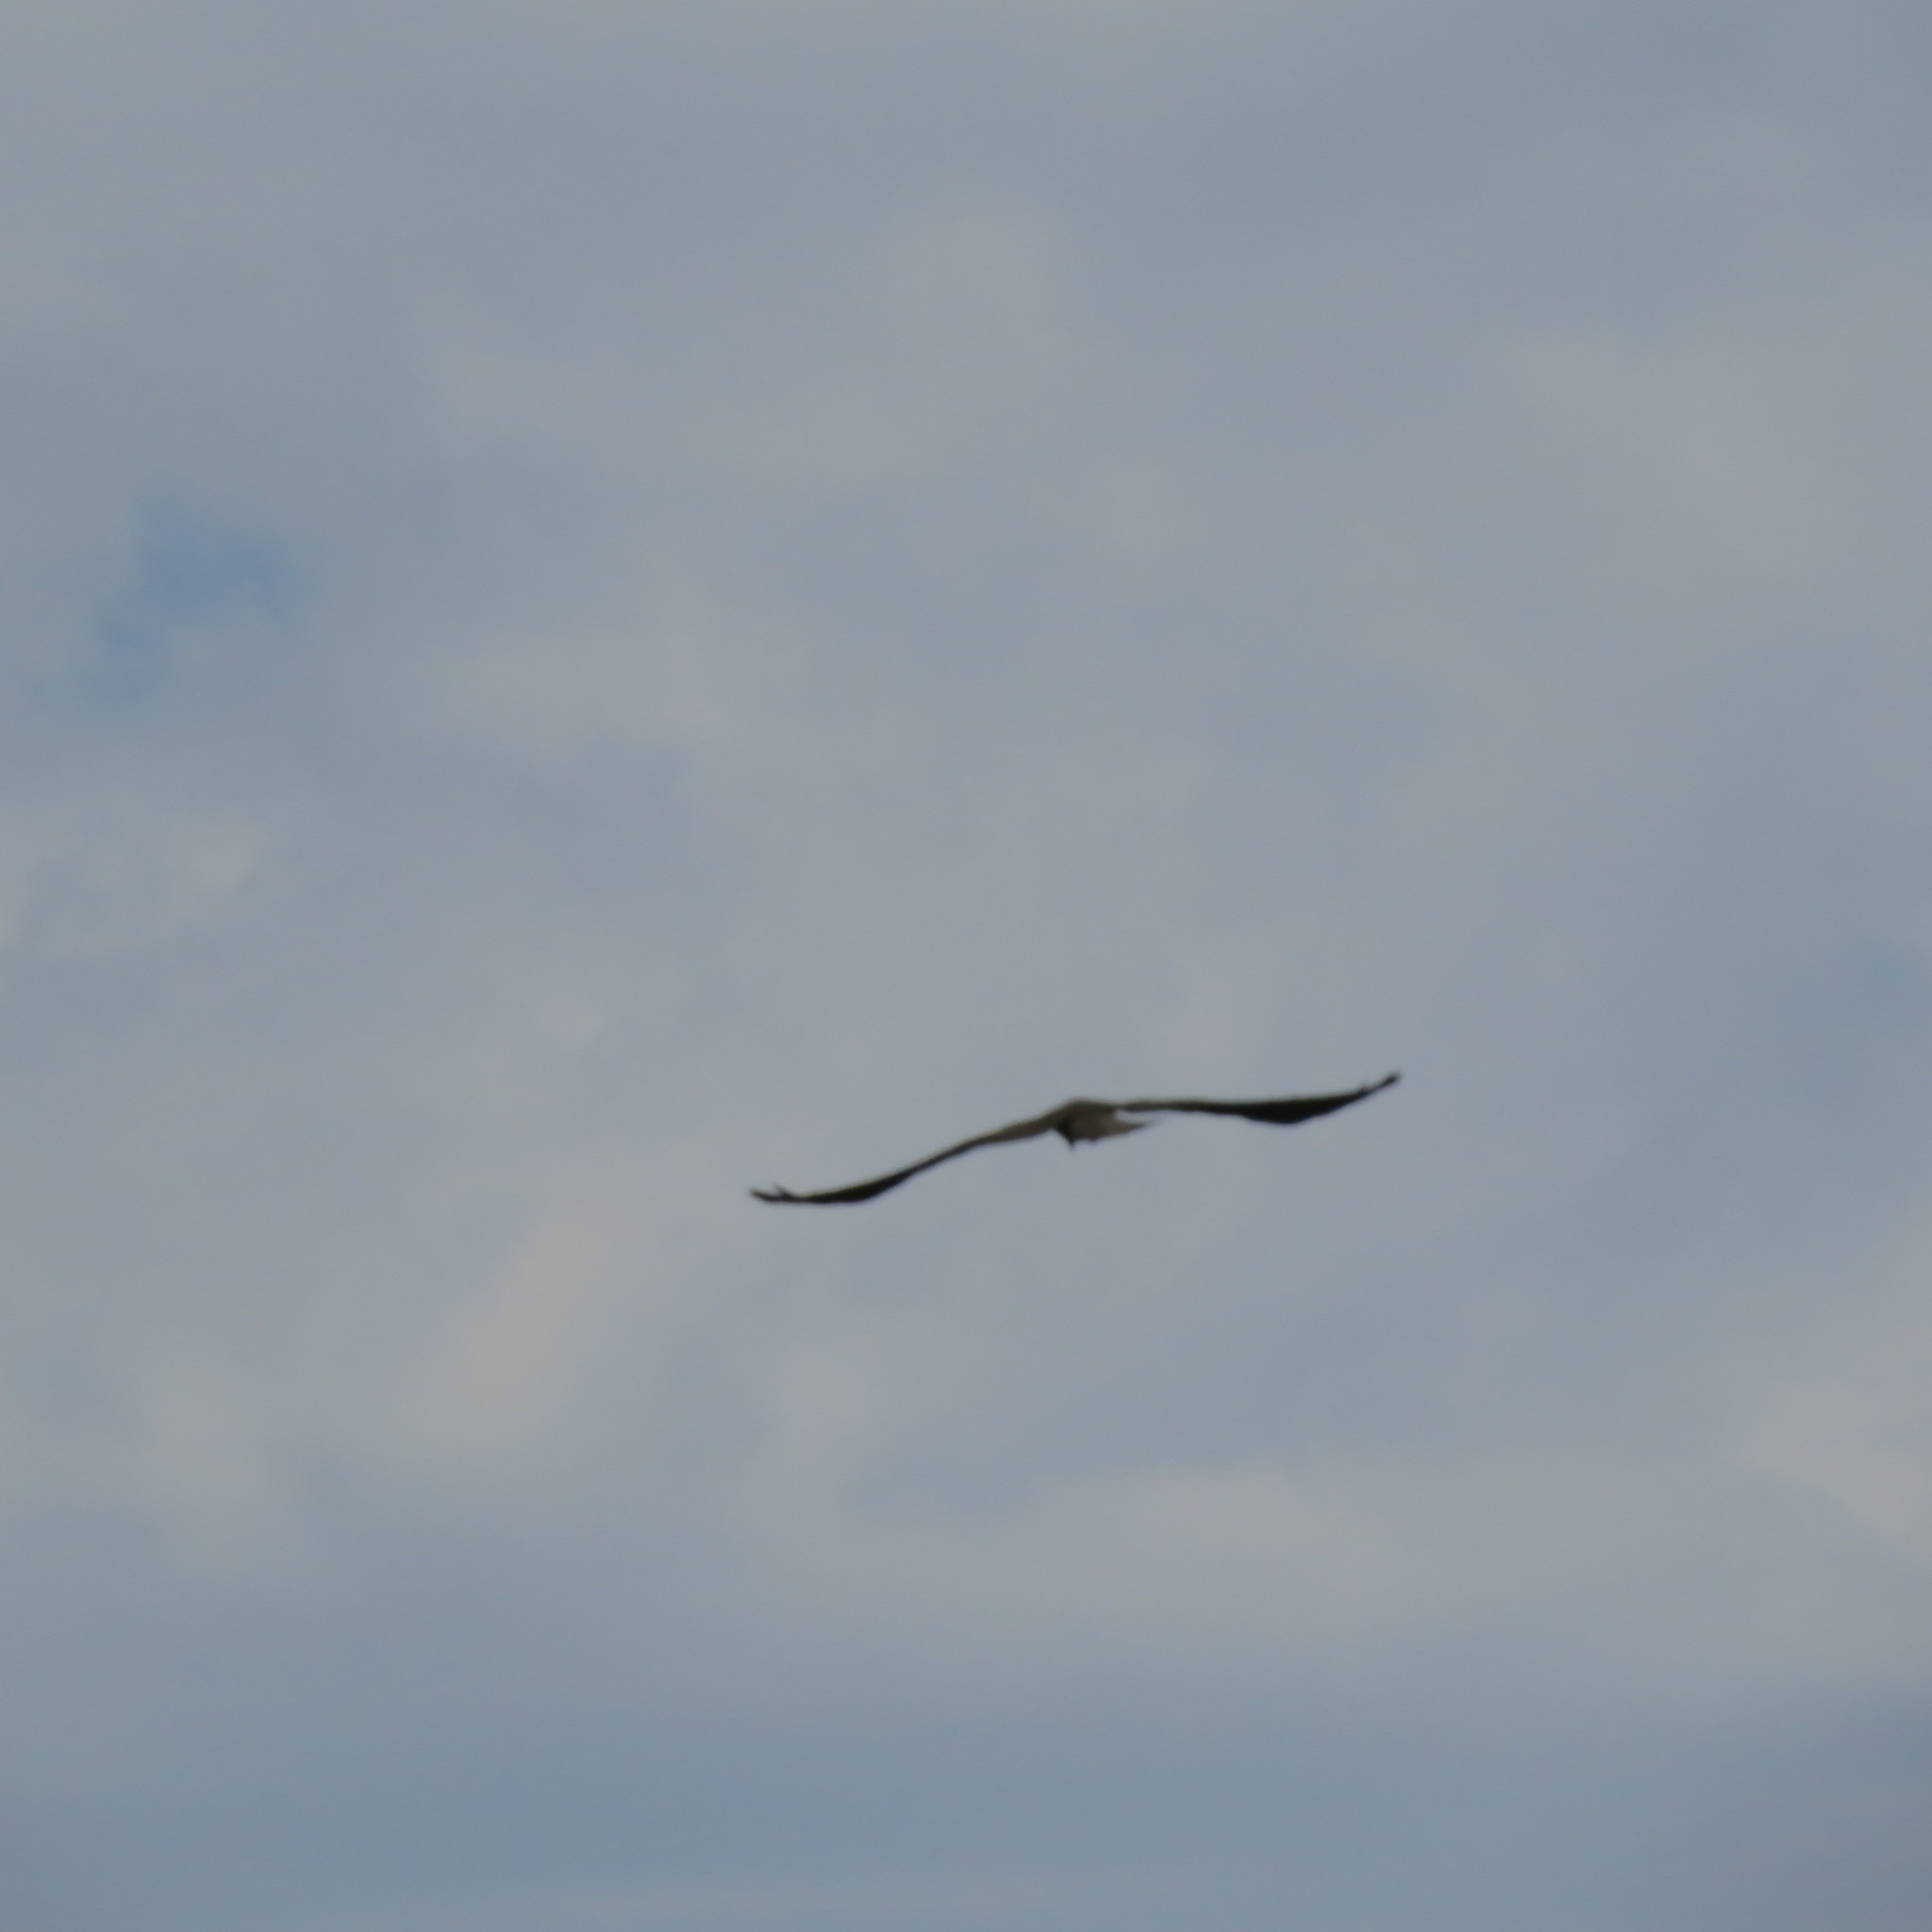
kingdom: Animalia
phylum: Chordata
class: Aves
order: Accipitriformes
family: Accipitridae
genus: Milvus
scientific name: Milvus migrans
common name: Black kite
